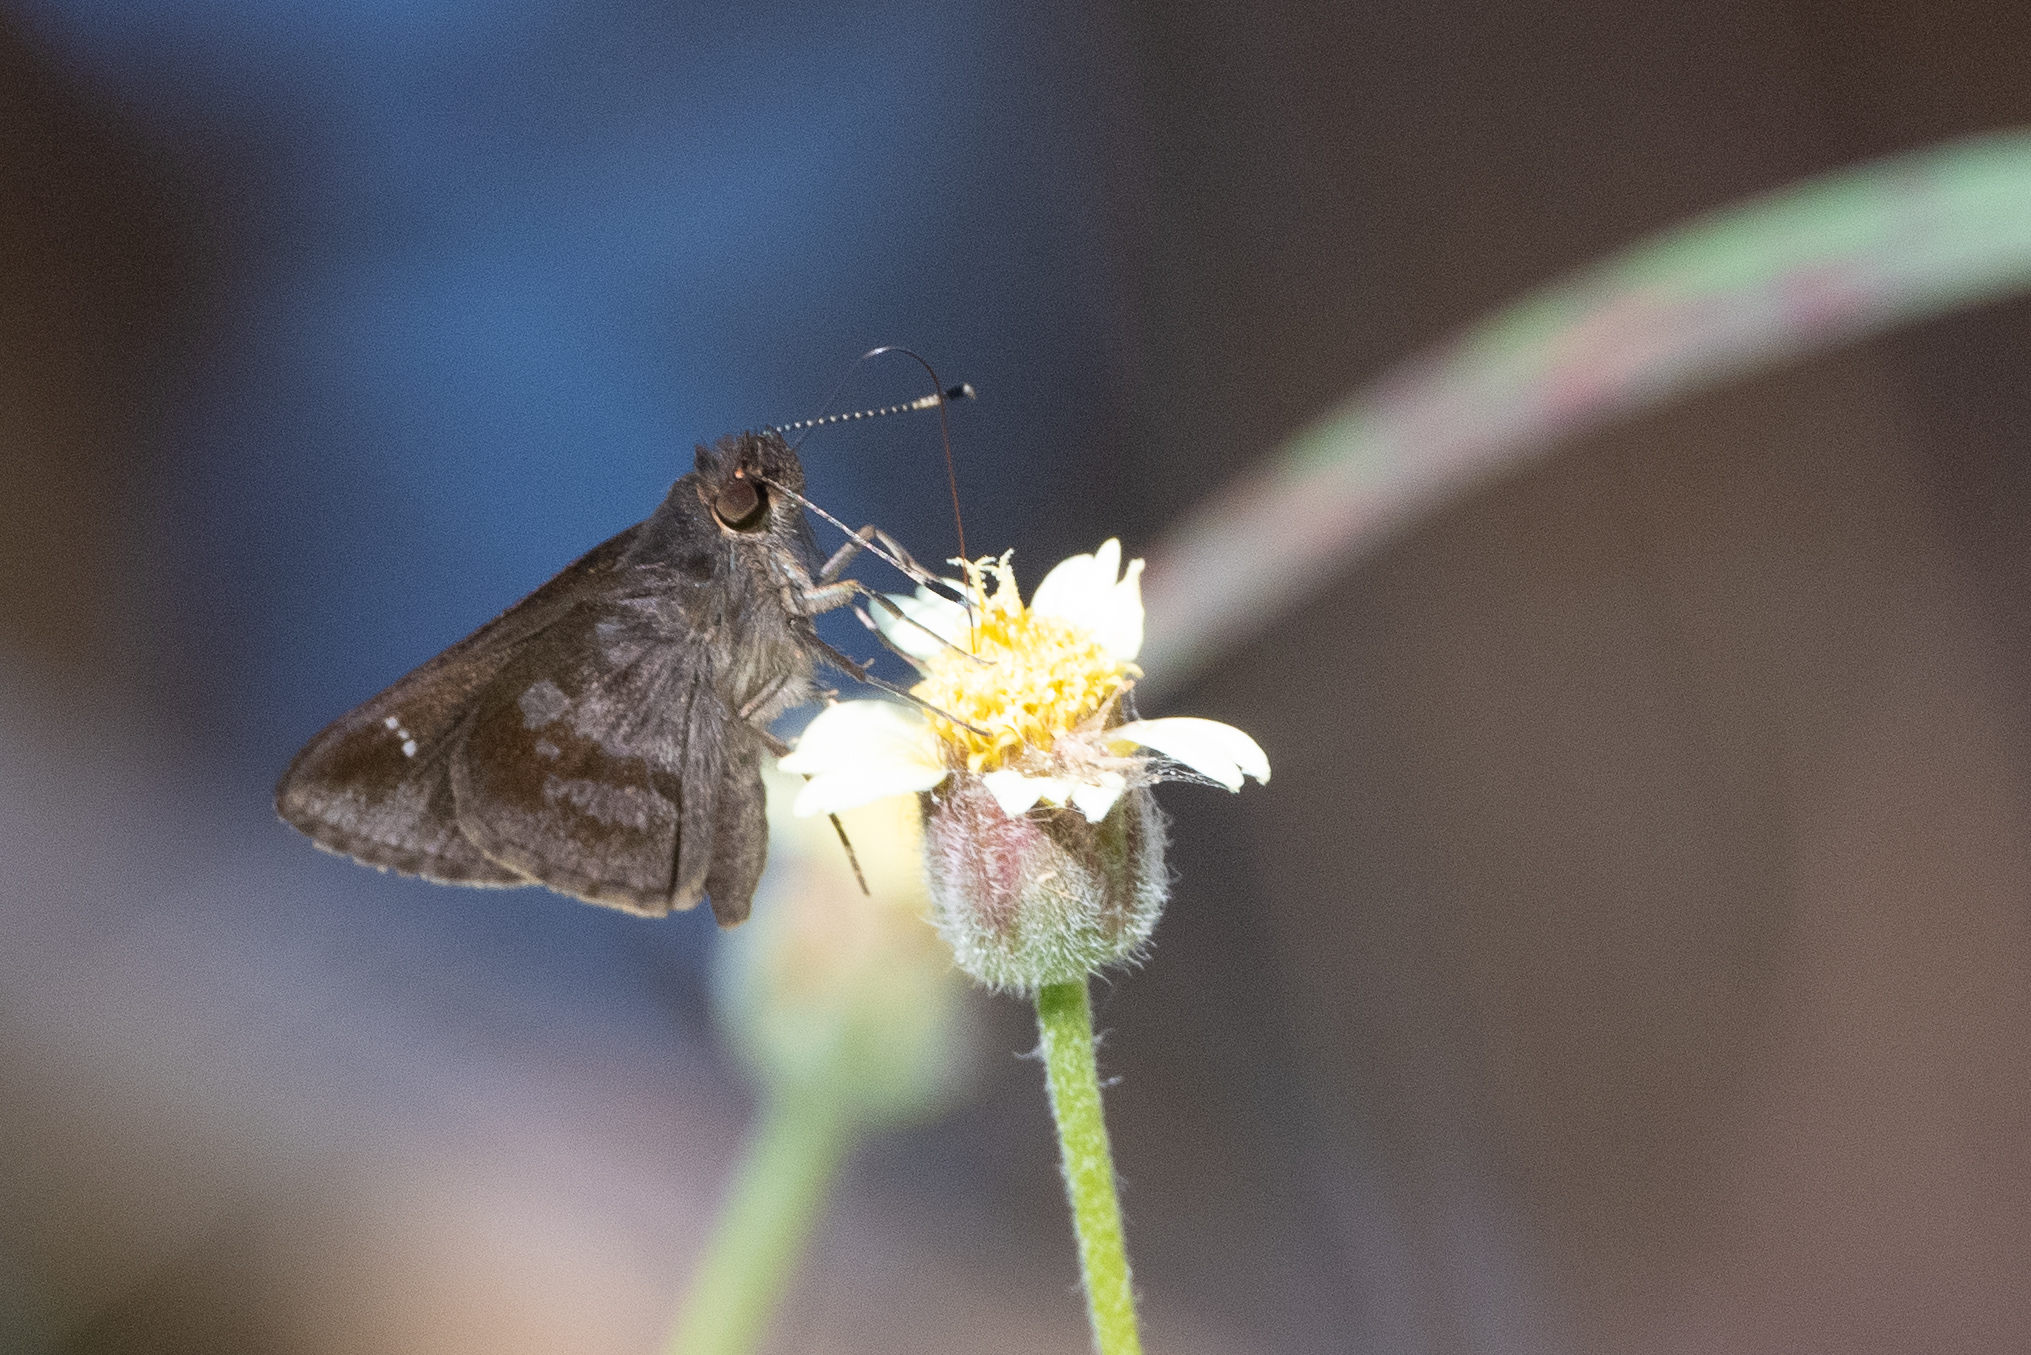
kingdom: Animalia
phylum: Arthropoda
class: Insecta
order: Lepidoptera
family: Hesperiidae
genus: Cymaenes
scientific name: Cymaenes
